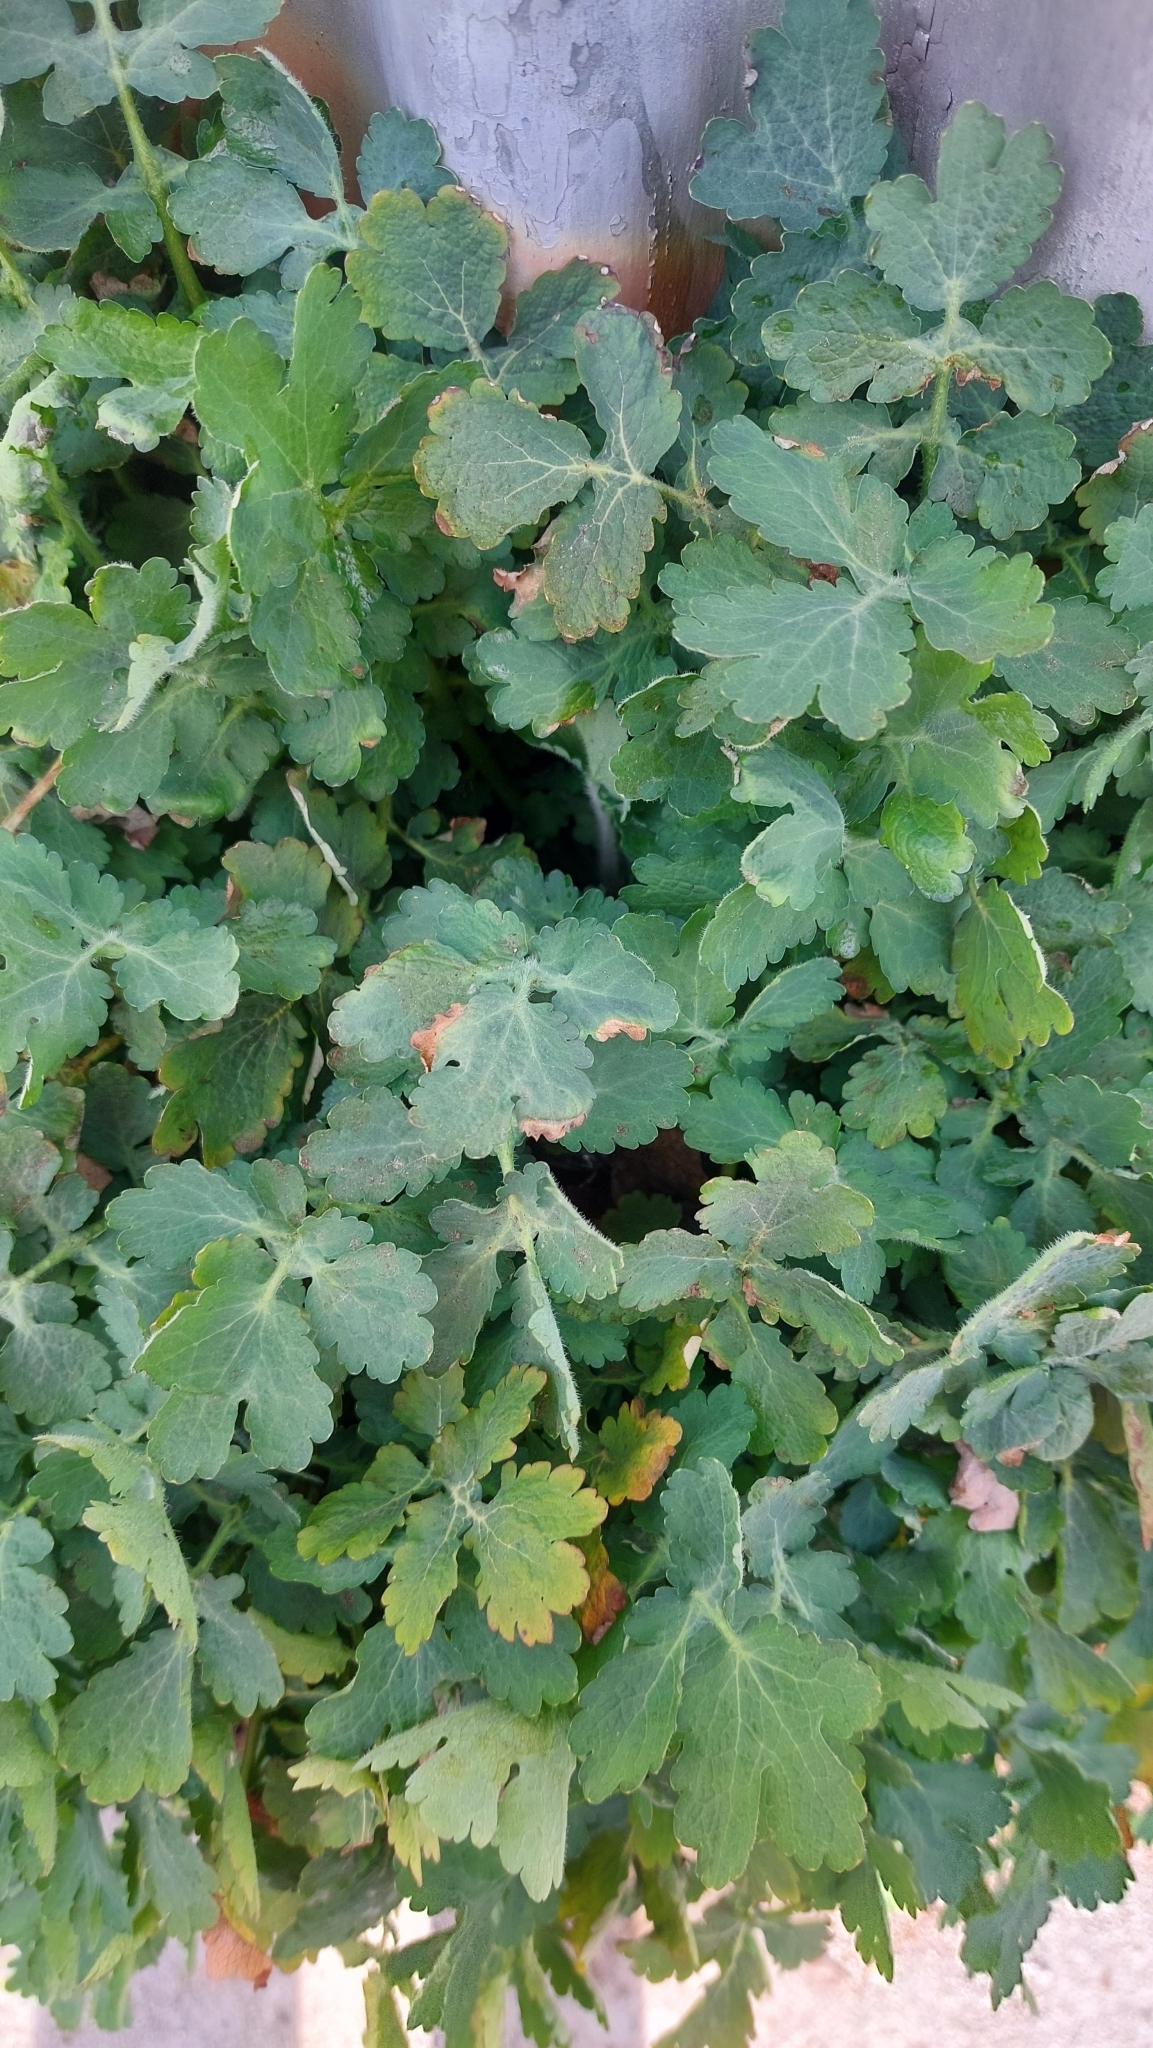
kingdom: Plantae
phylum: Tracheophyta
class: Magnoliopsida
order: Ranunculales
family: Papaveraceae
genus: Chelidonium
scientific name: Chelidonium majus
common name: Greater celandine
